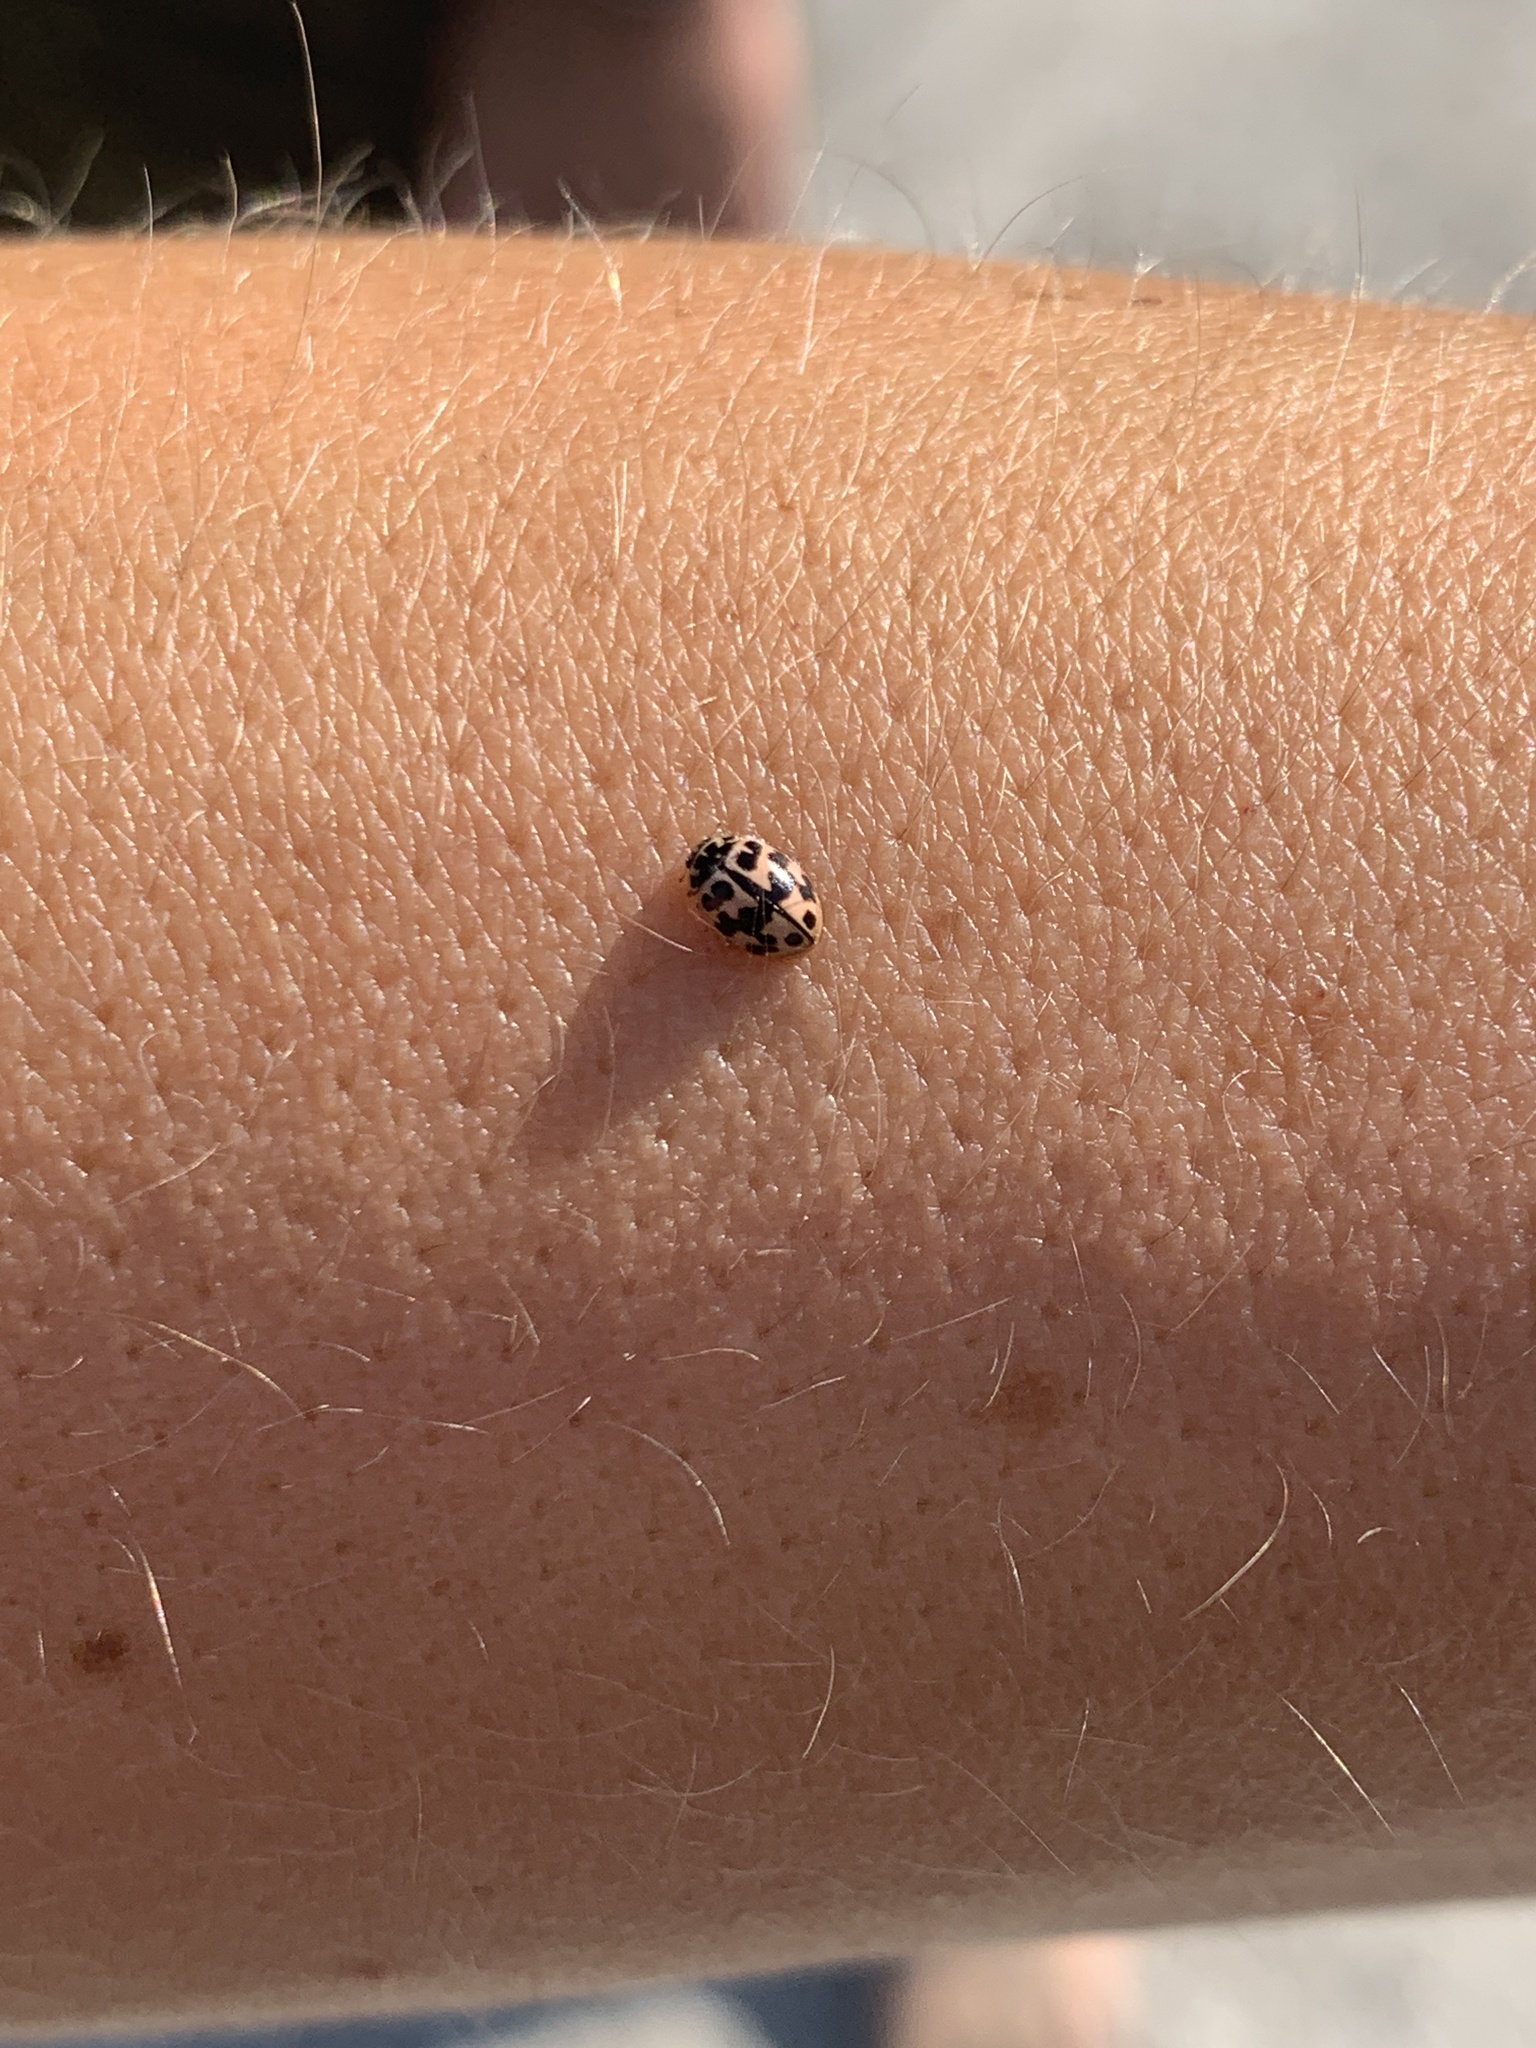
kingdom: Animalia
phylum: Arthropoda
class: Insecta
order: Coleoptera
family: Coccinellidae
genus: Oenopia
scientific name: Oenopia conglobata
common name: Ladybird beetle
